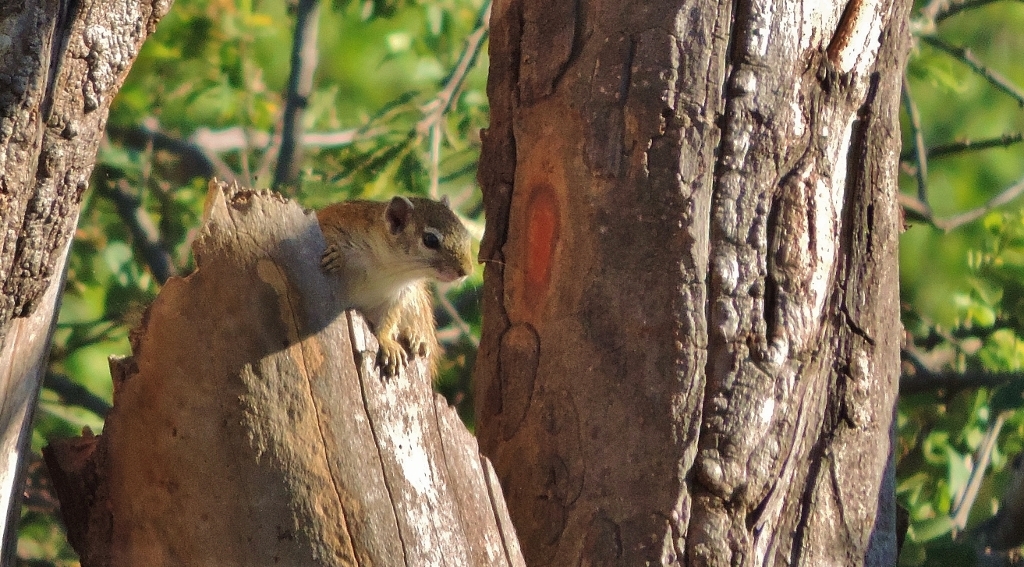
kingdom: Animalia
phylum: Chordata
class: Mammalia
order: Rodentia
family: Sciuridae
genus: Paraxerus
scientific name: Paraxerus cepapi
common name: Smith's bush squirrel
